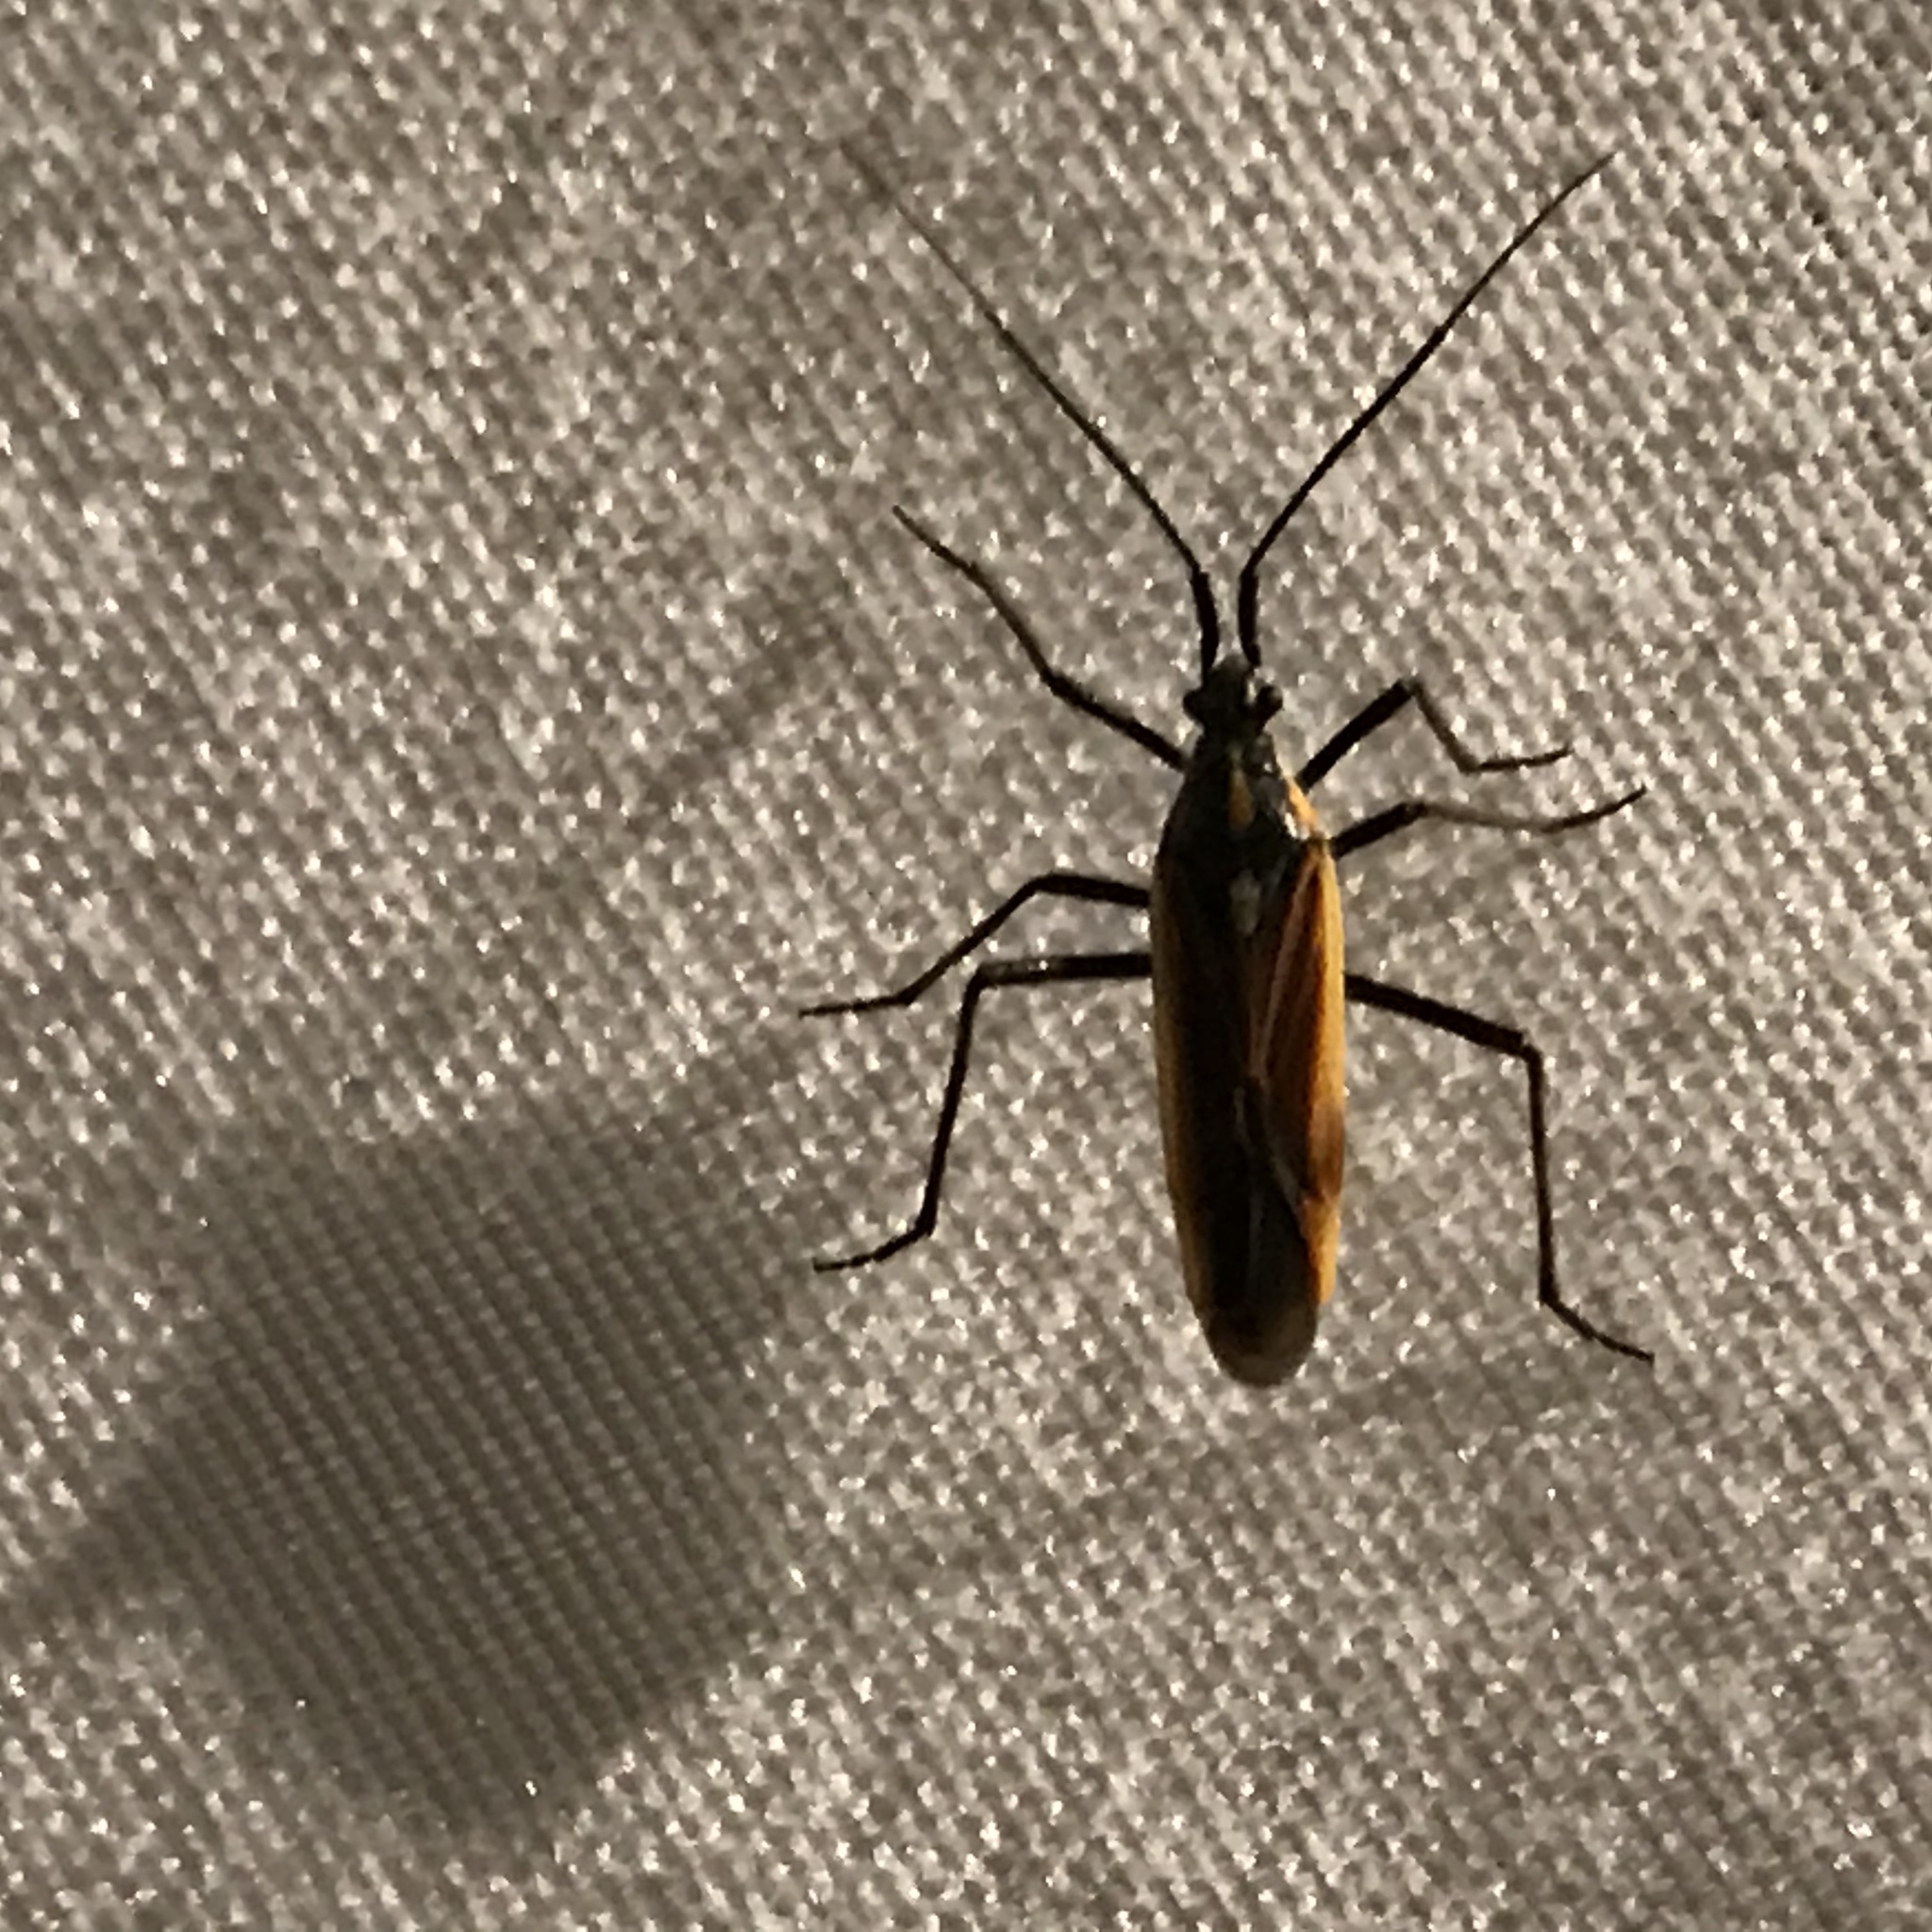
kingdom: Animalia
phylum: Arthropoda
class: Insecta
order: Hemiptera
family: Miridae
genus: Leptopterna
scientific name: Leptopterna dolabrata
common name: Meadow plant bug
